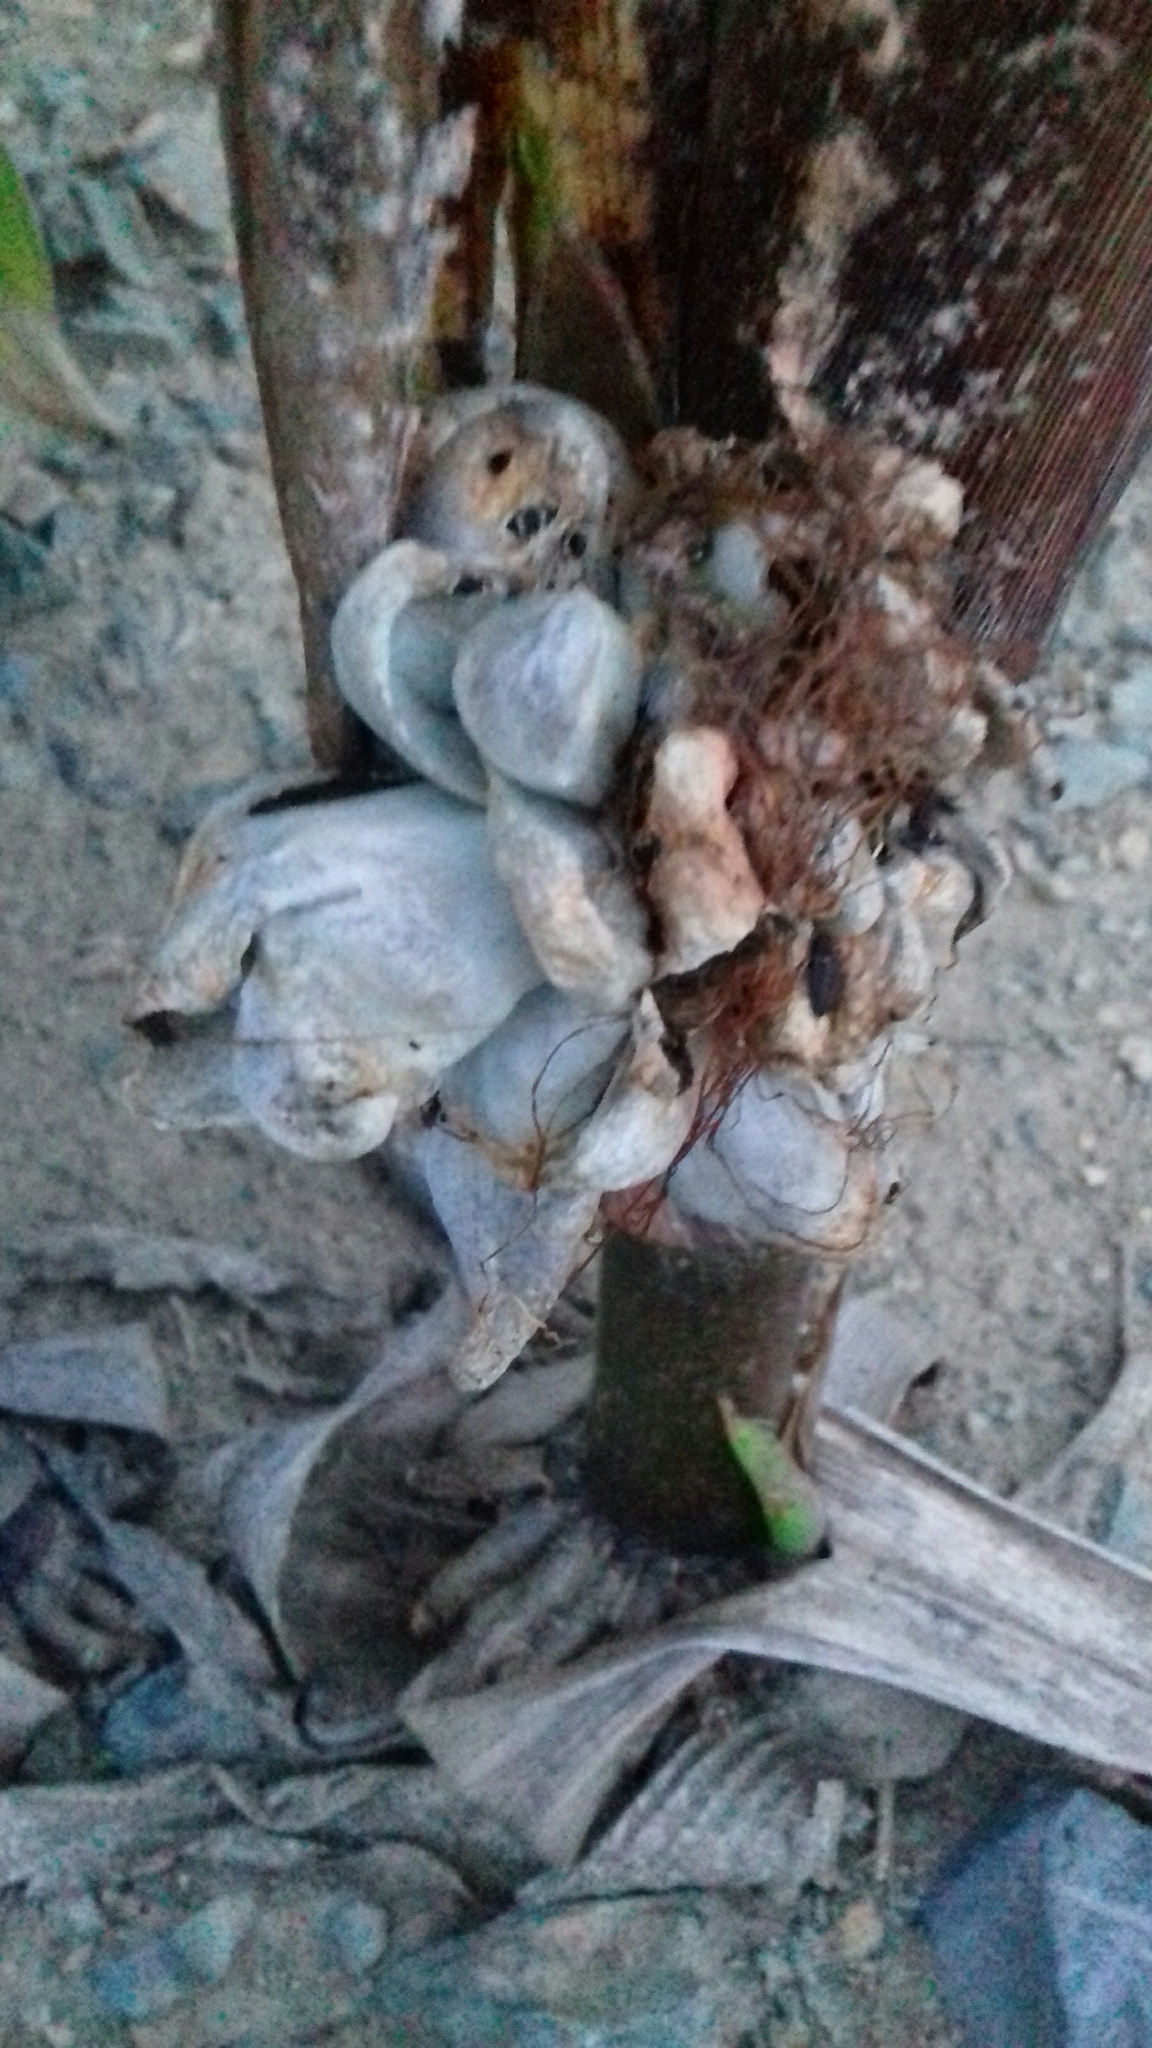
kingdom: Fungi
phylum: Basidiomycota
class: Ustilaginomycetes
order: Ustilaginales
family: Ustilaginaceae
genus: Mycosarcoma
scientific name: Mycosarcoma maydis
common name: Corn smut
